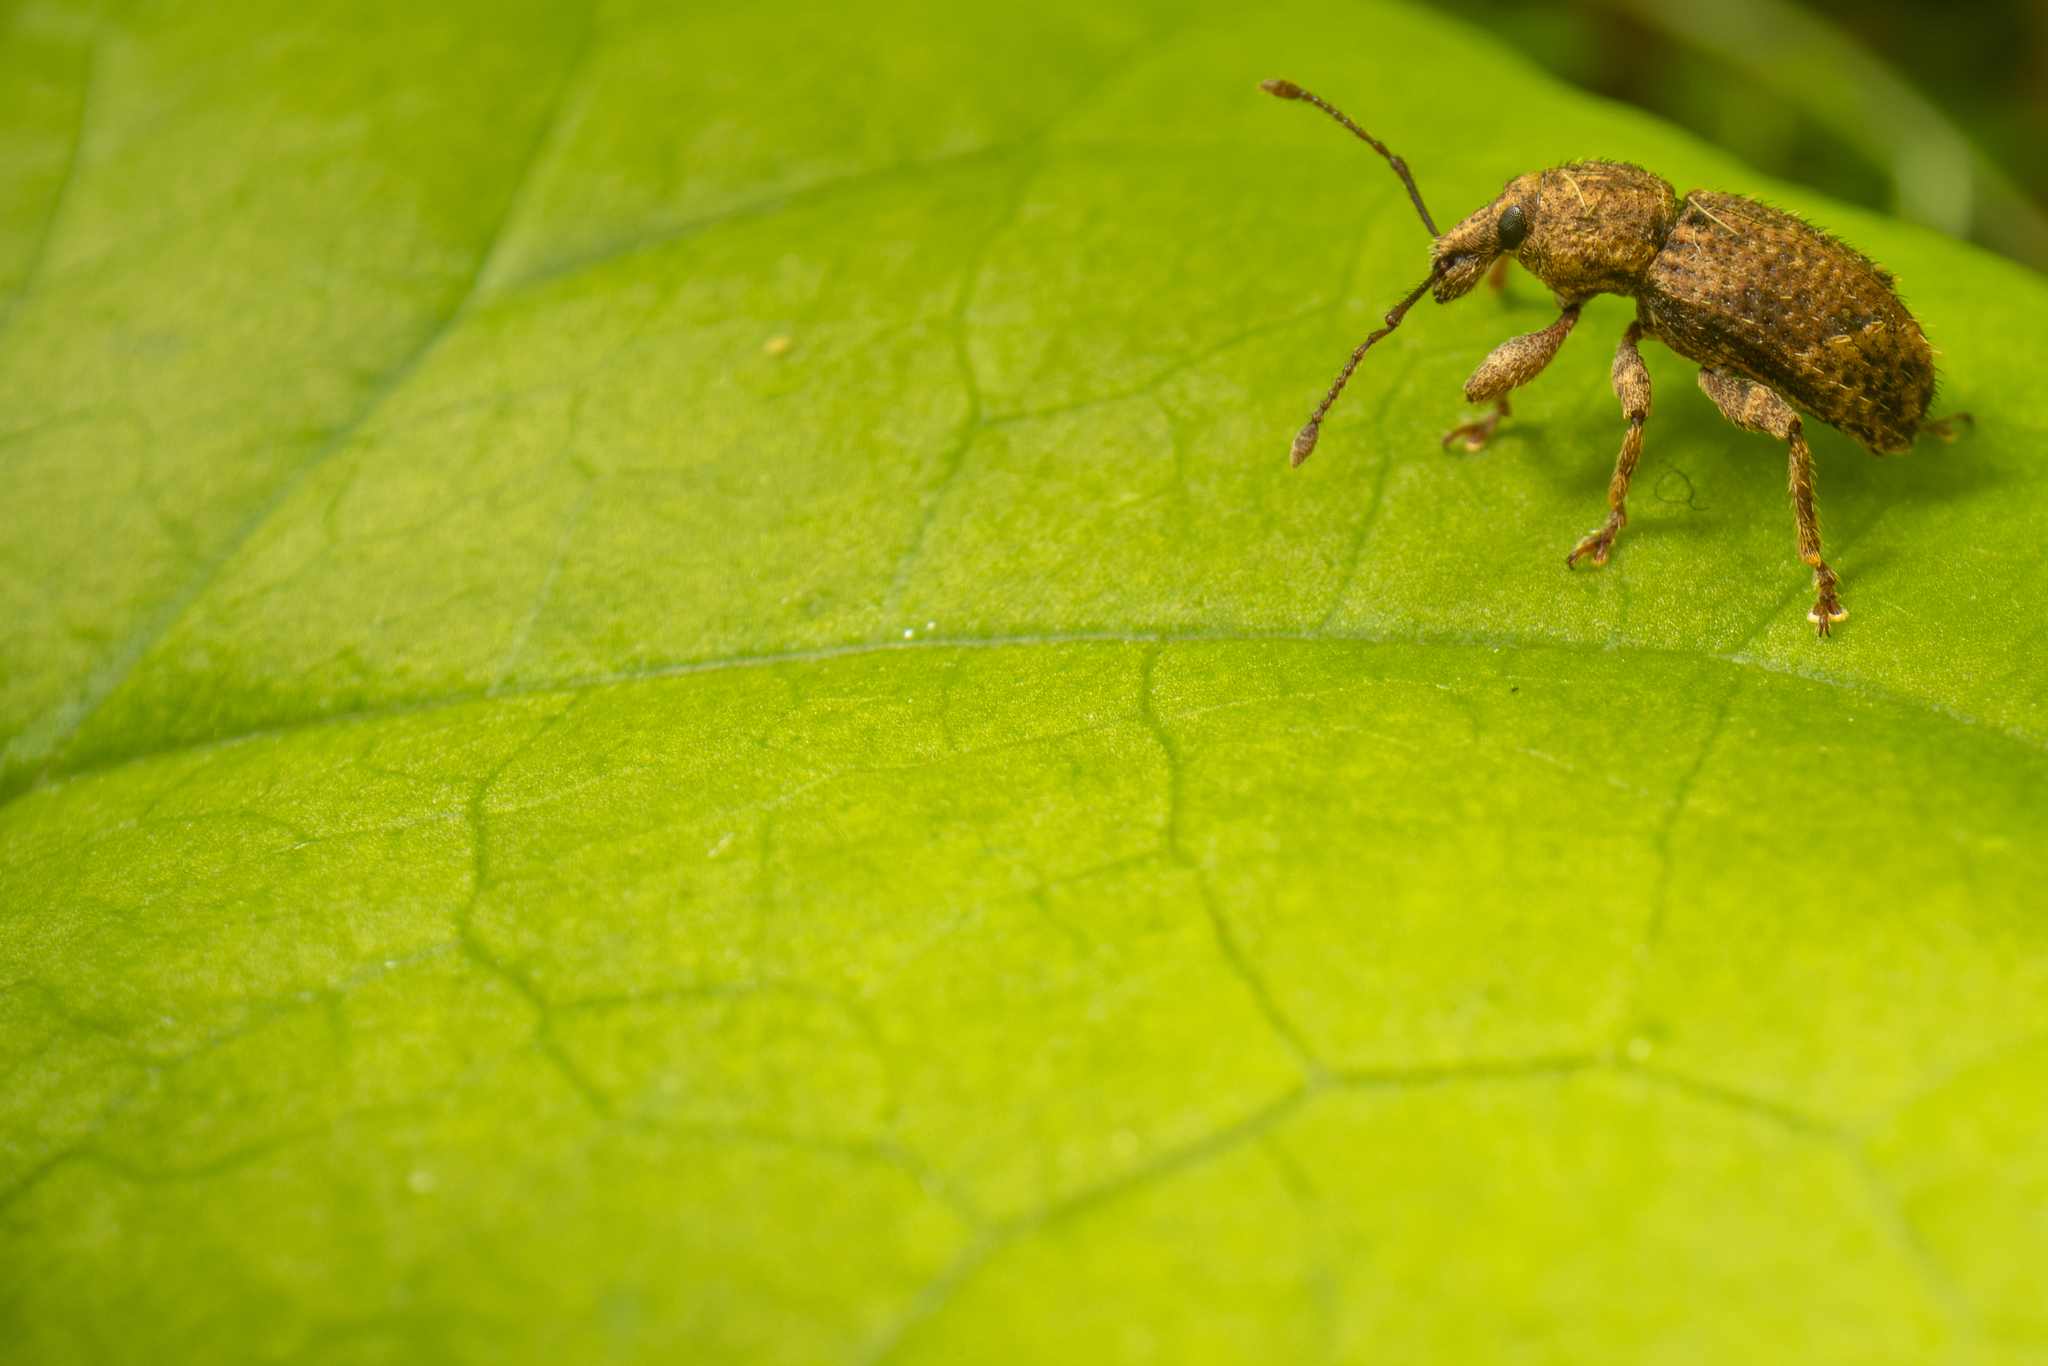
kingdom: Animalia
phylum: Arthropoda
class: Insecta
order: Coleoptera
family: Curculionidae
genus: Chalepistes
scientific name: Chalepistes compressus
